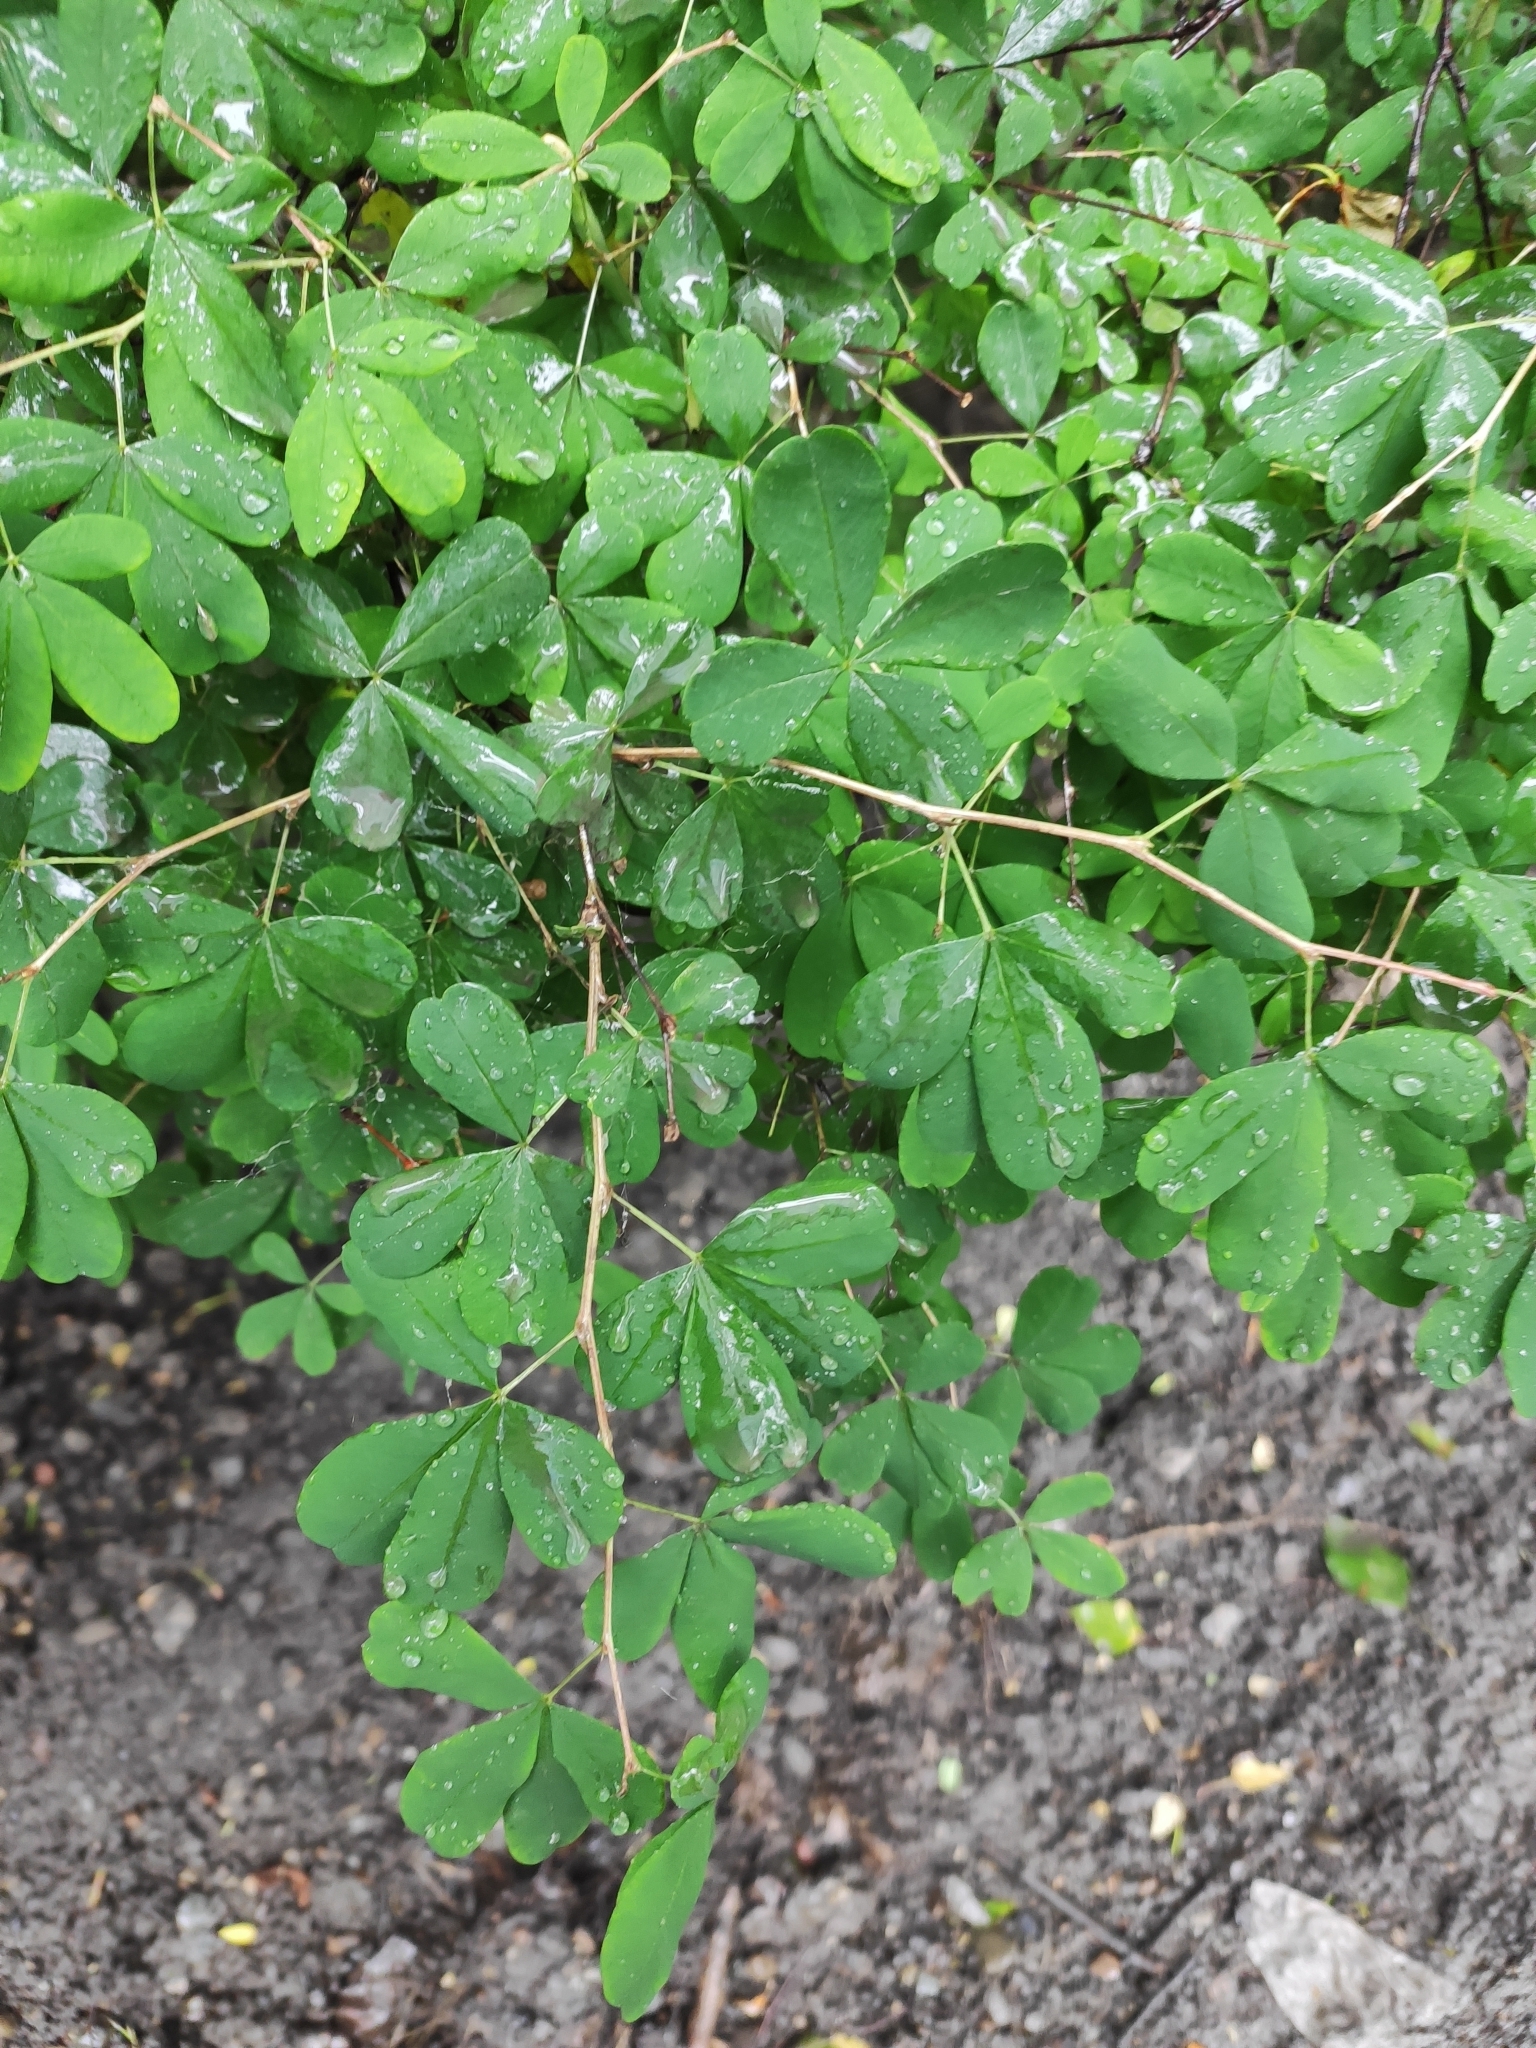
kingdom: Plantae
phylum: Tracheophyta
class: Magnoliopsida
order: Fabales
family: Fabaceae
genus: Caragana
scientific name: Caragana frutex
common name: Russian peashrub
